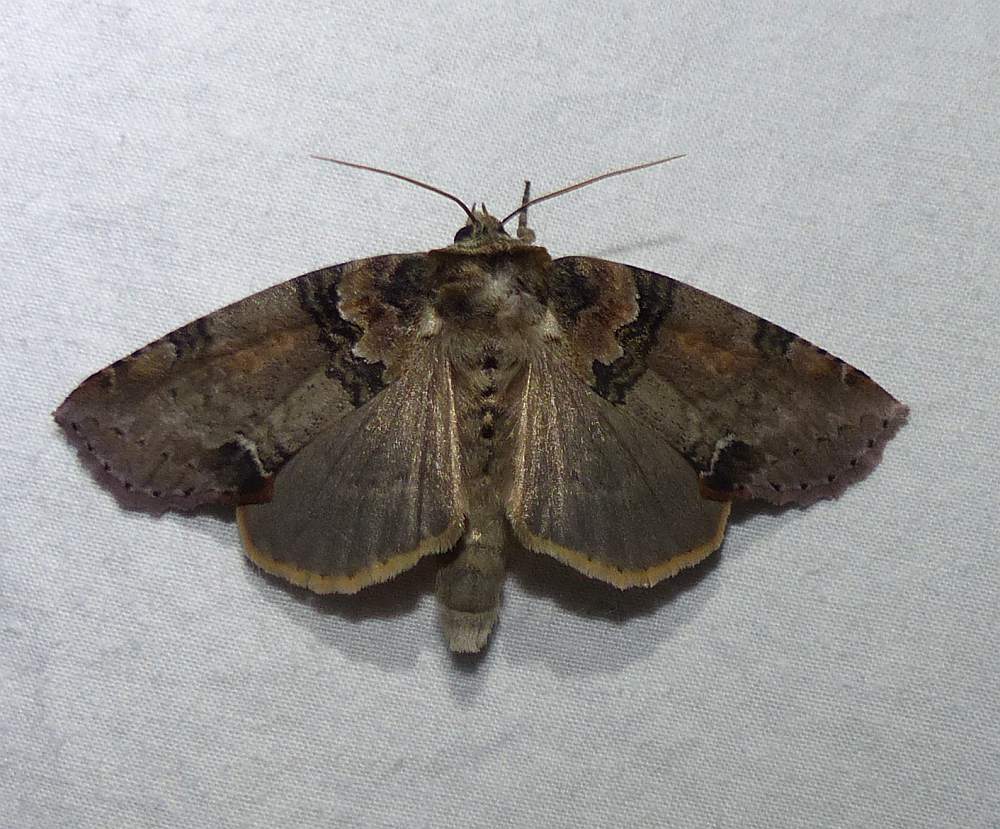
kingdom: Animalia
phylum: Arthropoda
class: Insecta
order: Lepidoptera
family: Drepanidae
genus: Pseudothyatira
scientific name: Pseudothyatira cymatophoroides
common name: Tufted thyatirid moth
